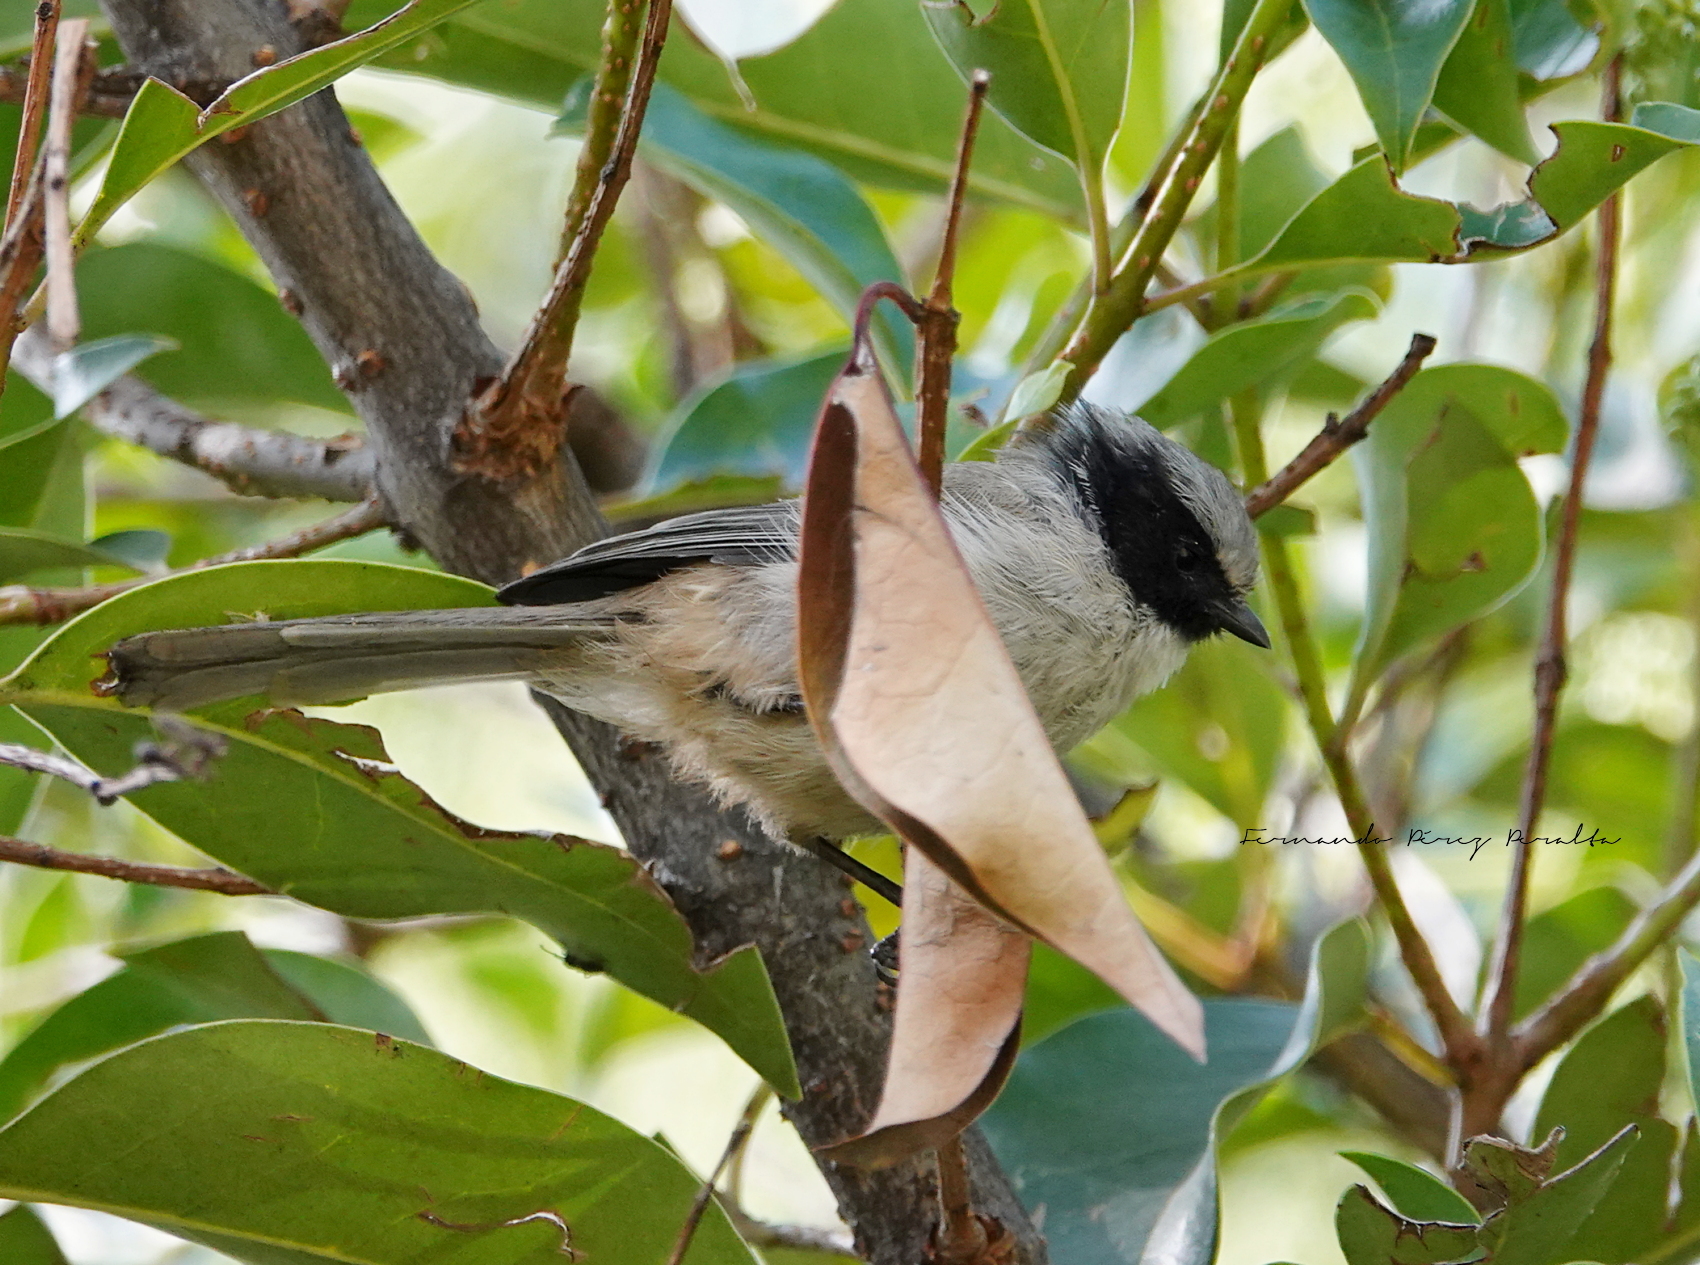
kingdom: Animalia
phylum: Chordata
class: Aves
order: Passeriformes
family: Aegithalidae
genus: Psaltriparus
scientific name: Psaltriparus minimus
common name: American bushtit
